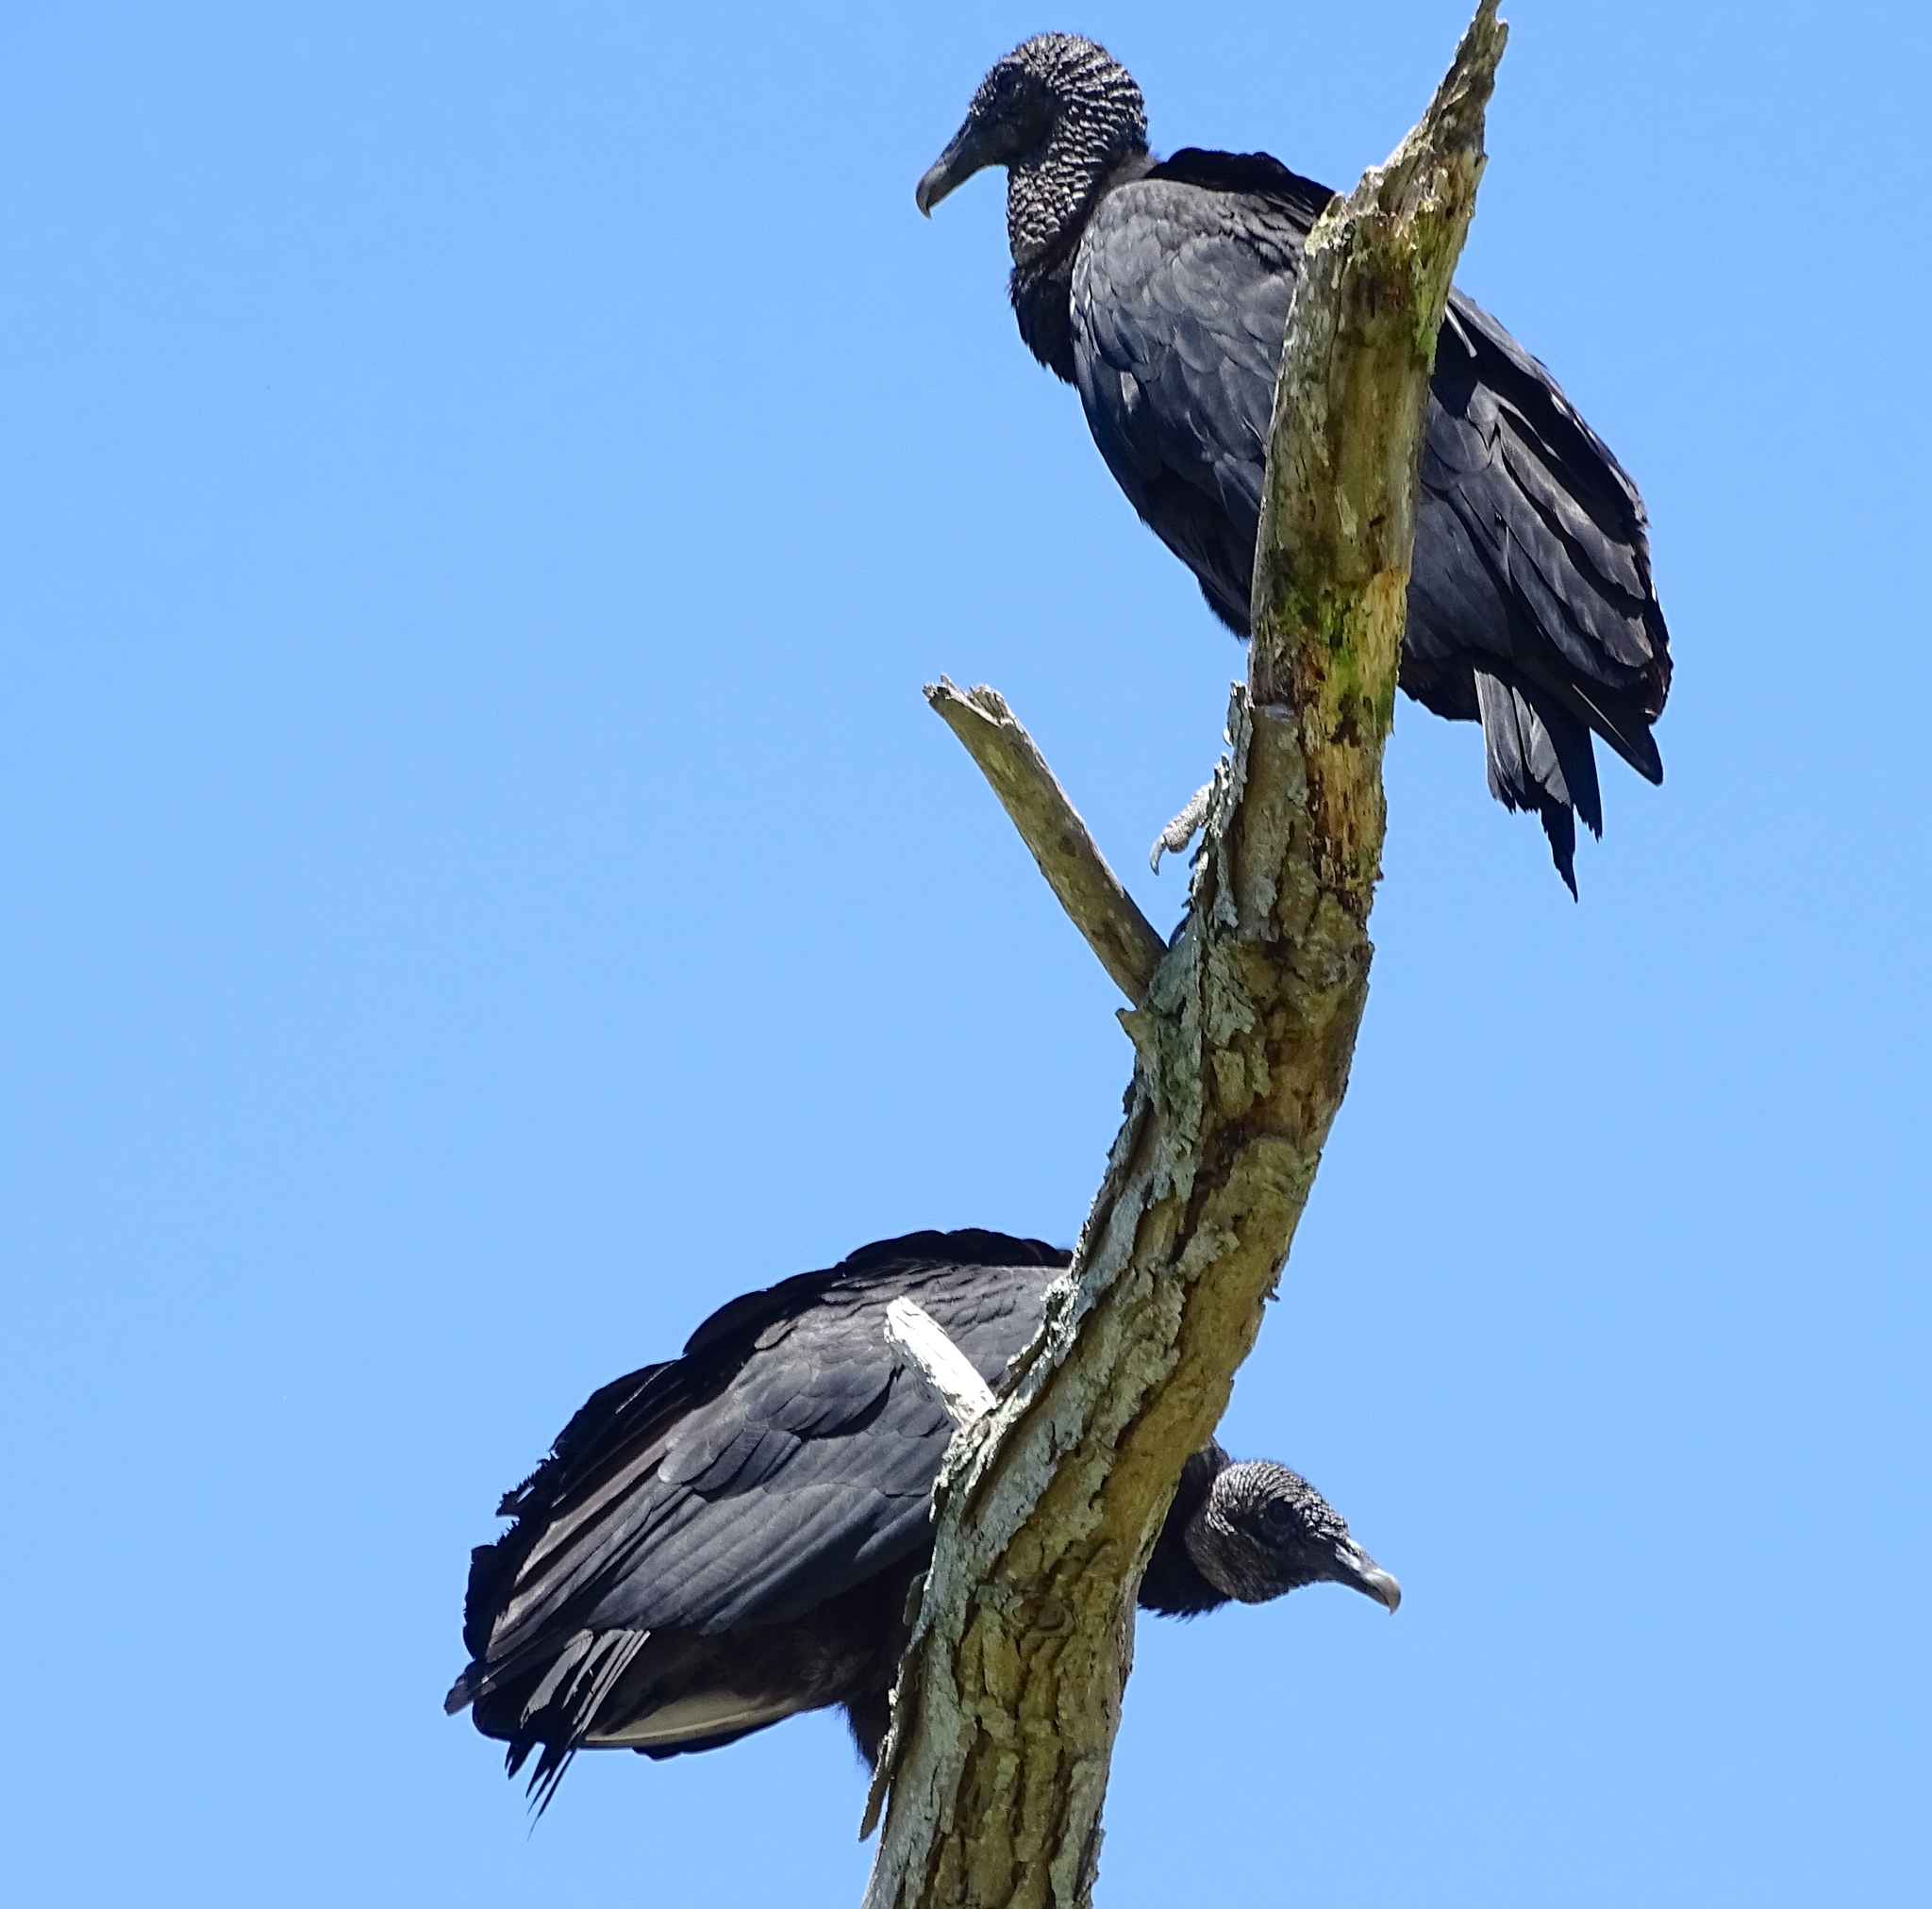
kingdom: Animalia
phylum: Chordata
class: Aves
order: Accipitriformes
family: Cathartidae
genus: Coragyps
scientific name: Coragyps atratus
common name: Black vulture
